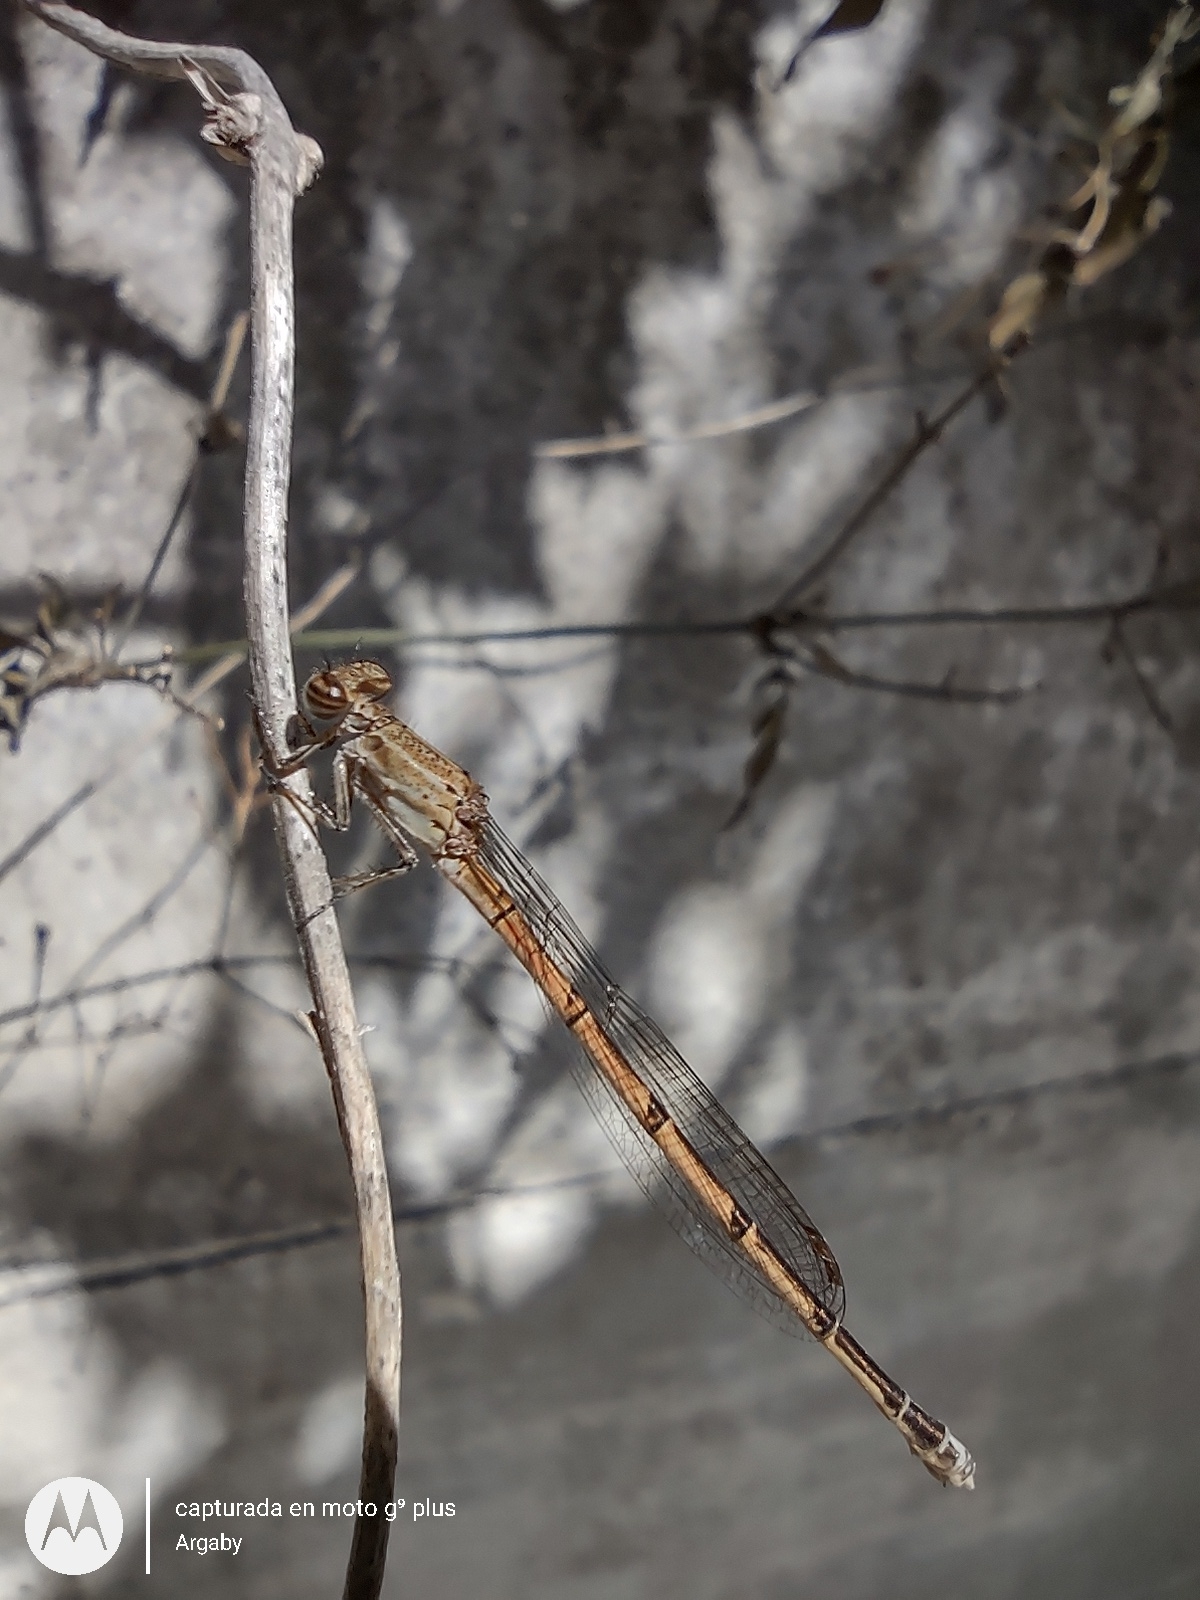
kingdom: Animalia
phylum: Arthropoda
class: Insecta
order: Odonata
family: Coenagrionidae
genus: Oxyagrion
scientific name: Oxyagrion terminale
